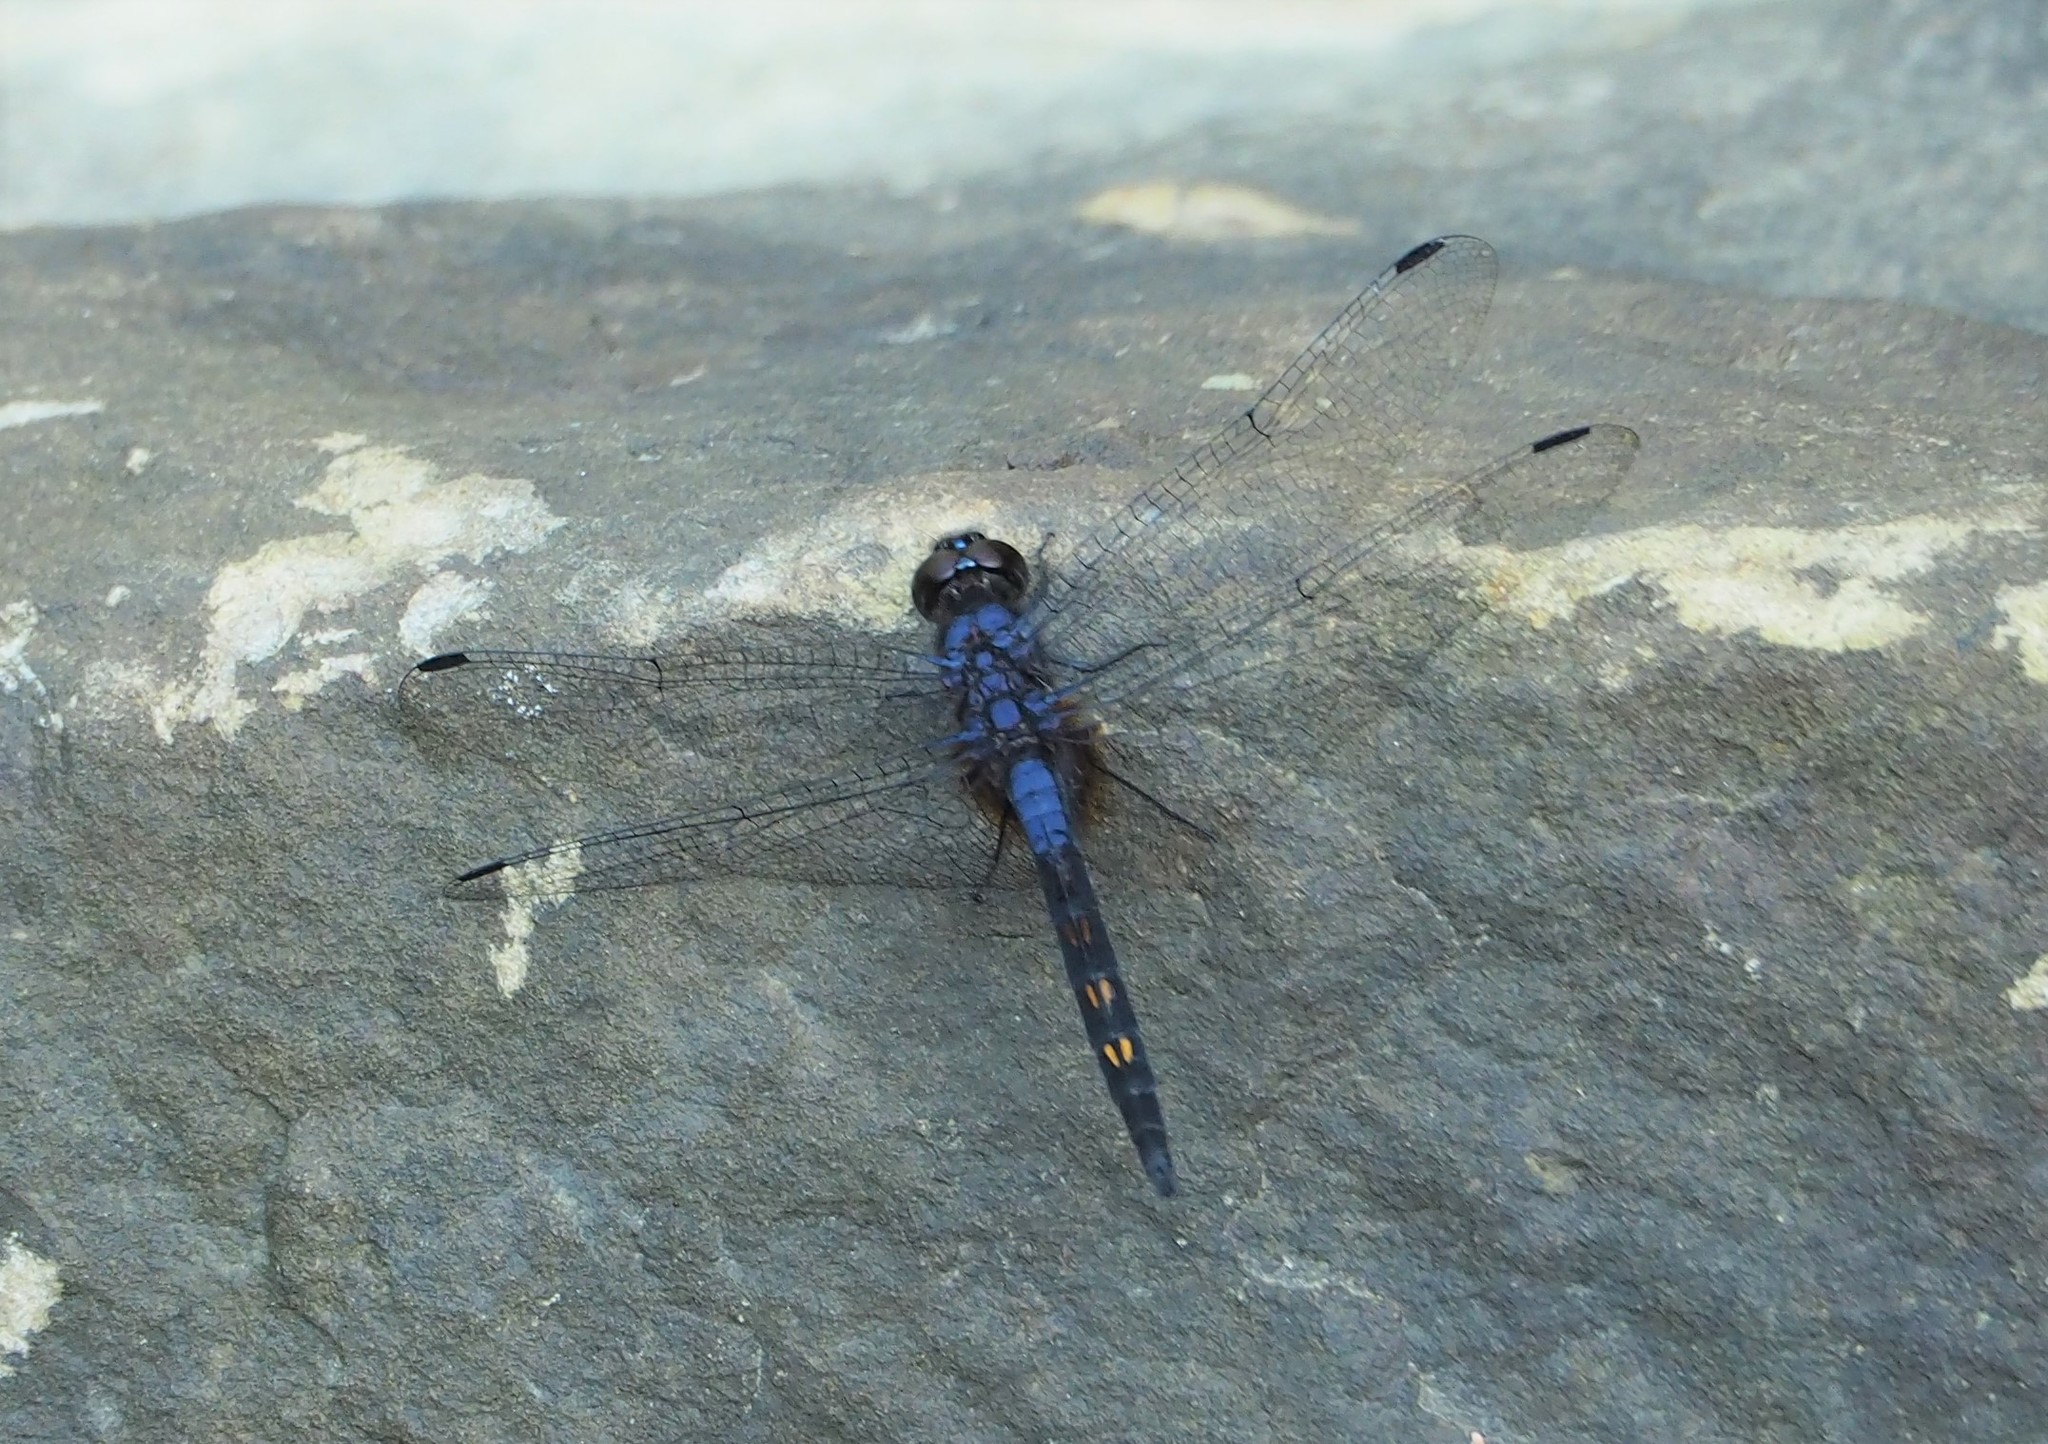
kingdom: Animalia
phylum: Arthropoda
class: Insecta
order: Odonata
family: Libellulidae
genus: Trithemis
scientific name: Trithemis festiva
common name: Indigo dropwing
